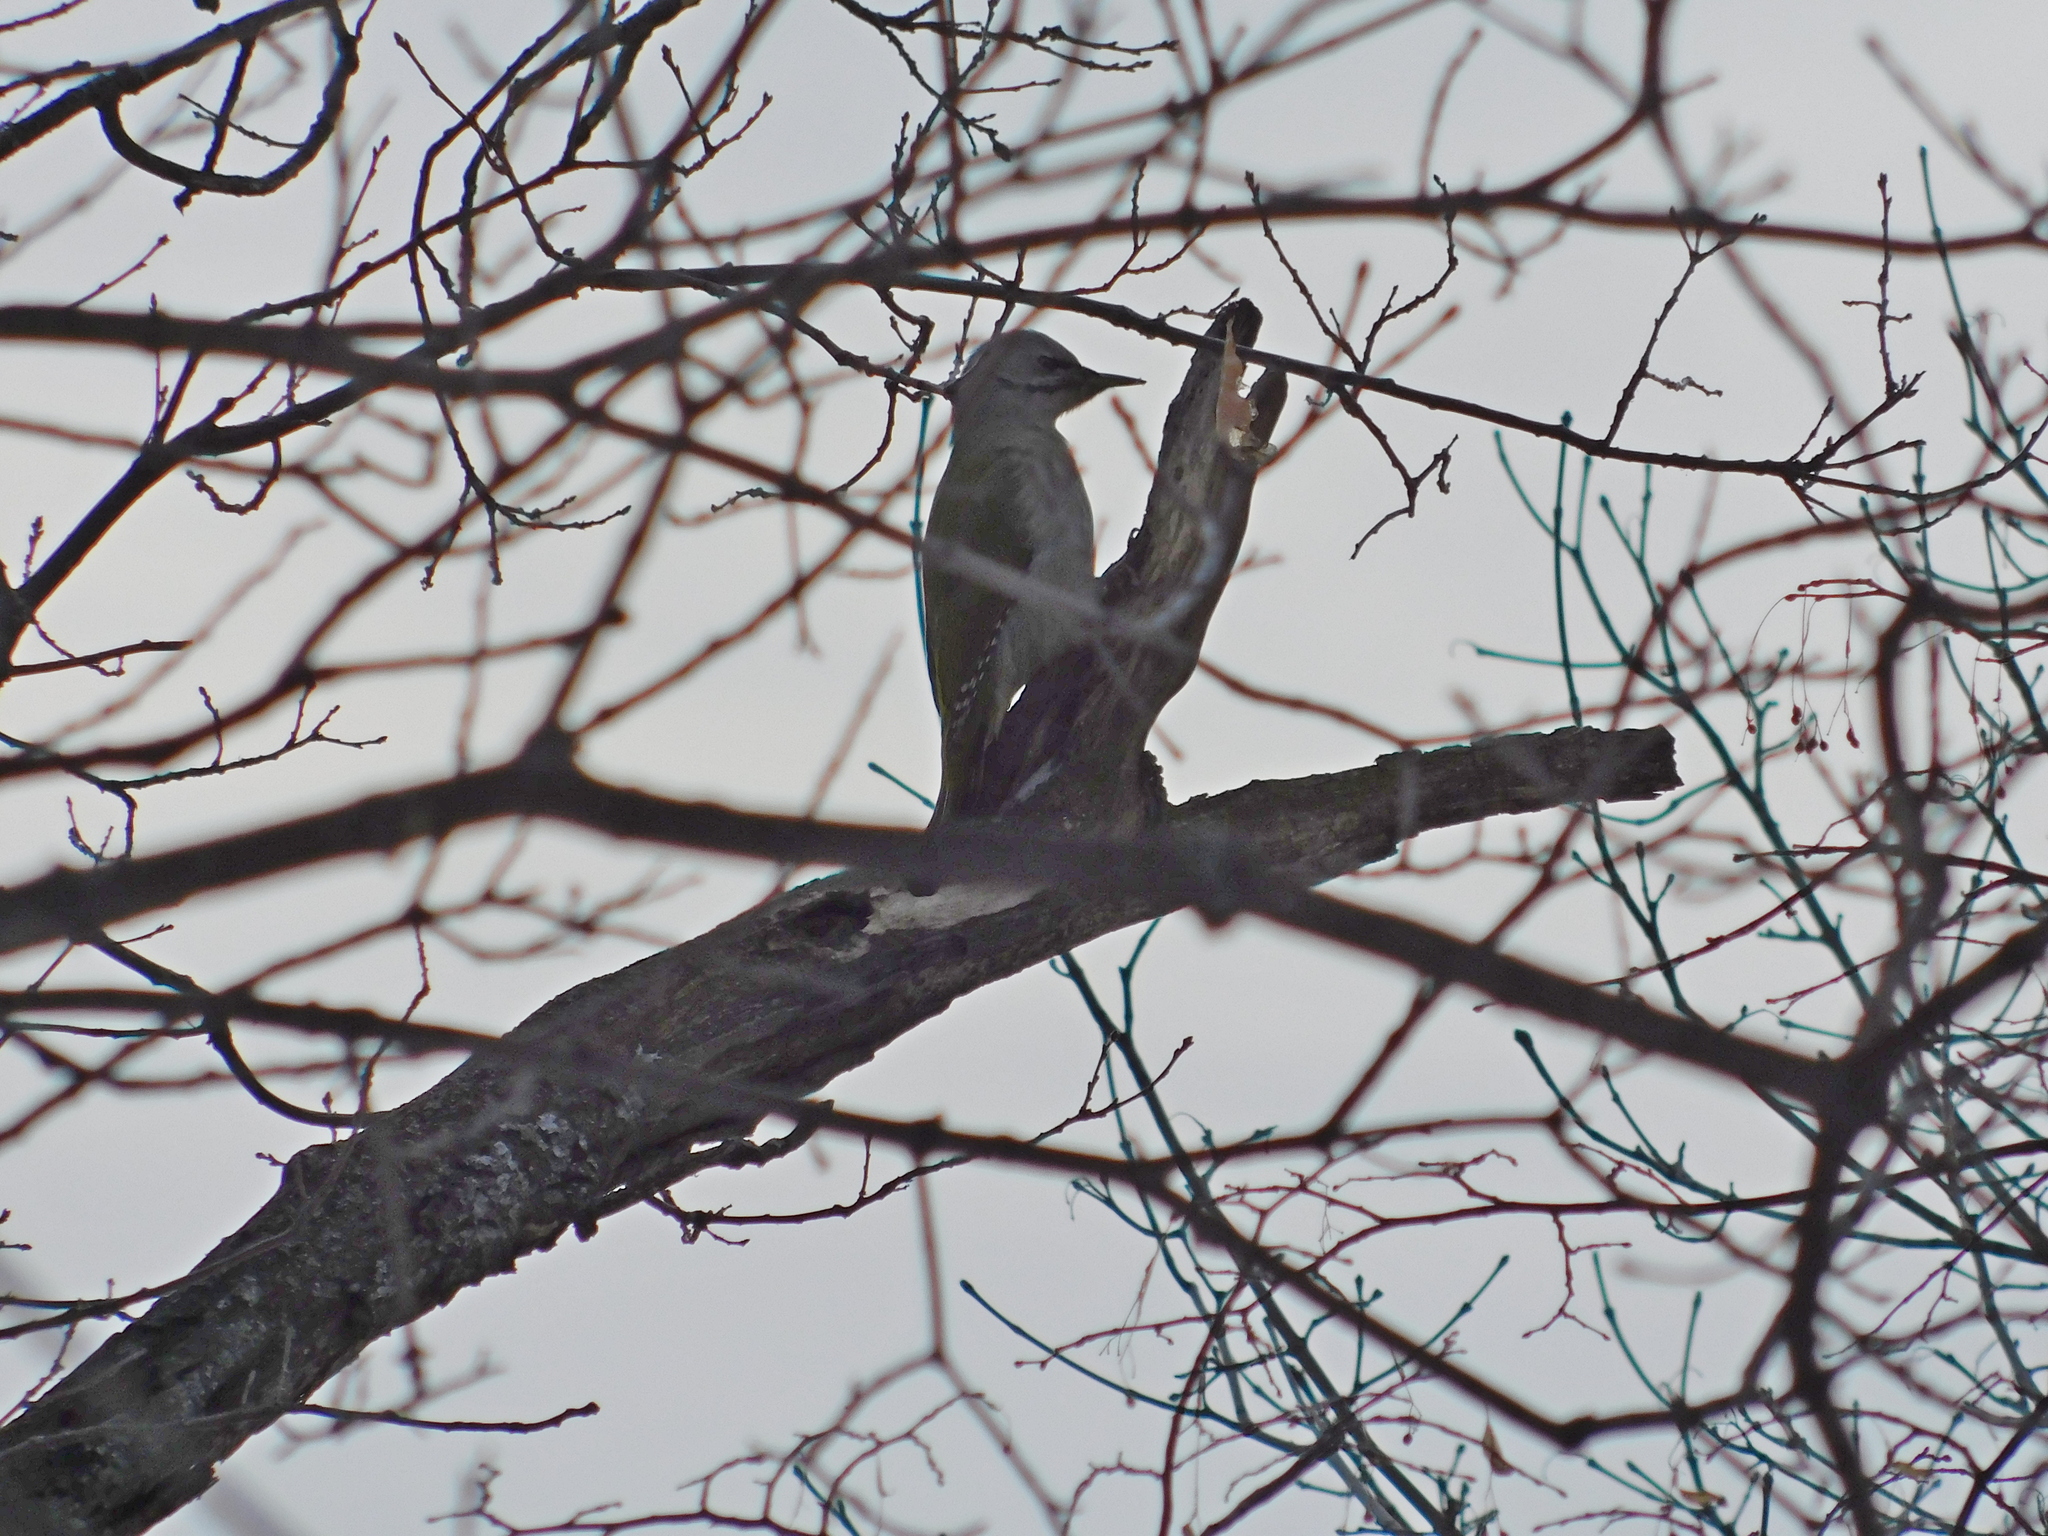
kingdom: Animalia
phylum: Chordata
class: Aves
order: Piciformes
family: Picidae
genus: Picus
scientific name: Picus canus
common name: Grey-headed woodpecker
